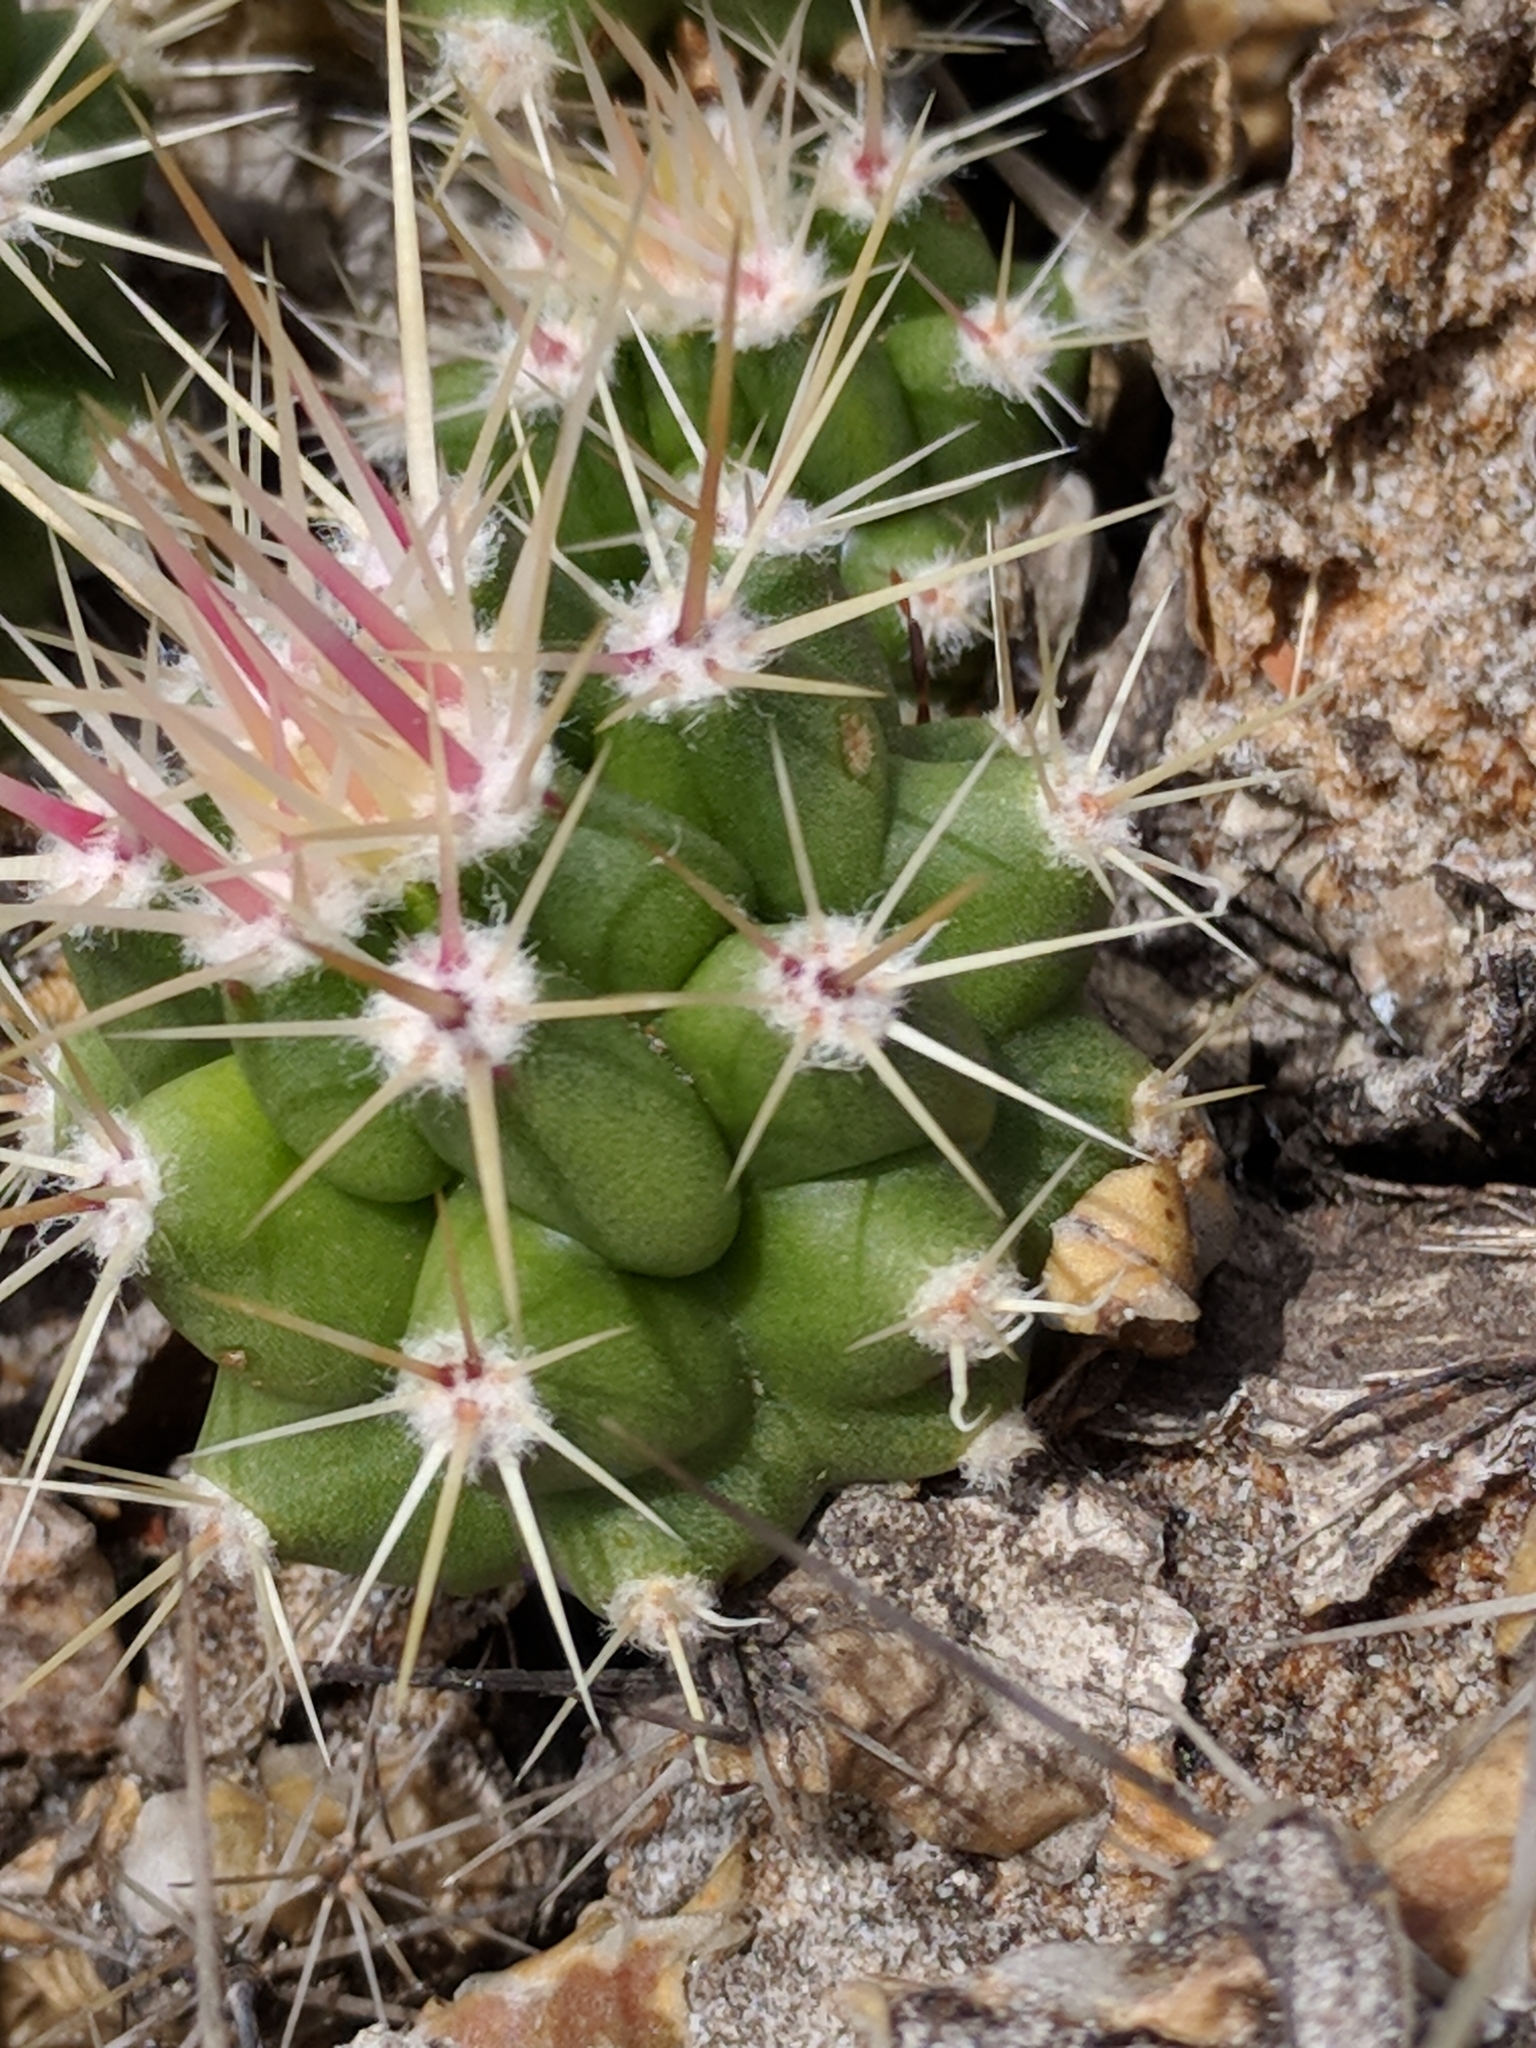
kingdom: Plantae
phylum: Tracheophyta
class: Magnoliopsida
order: Caryophyllales
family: Cactaceae
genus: Echinocereus
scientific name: Echinocereus enneacanthus
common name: Pitaya
